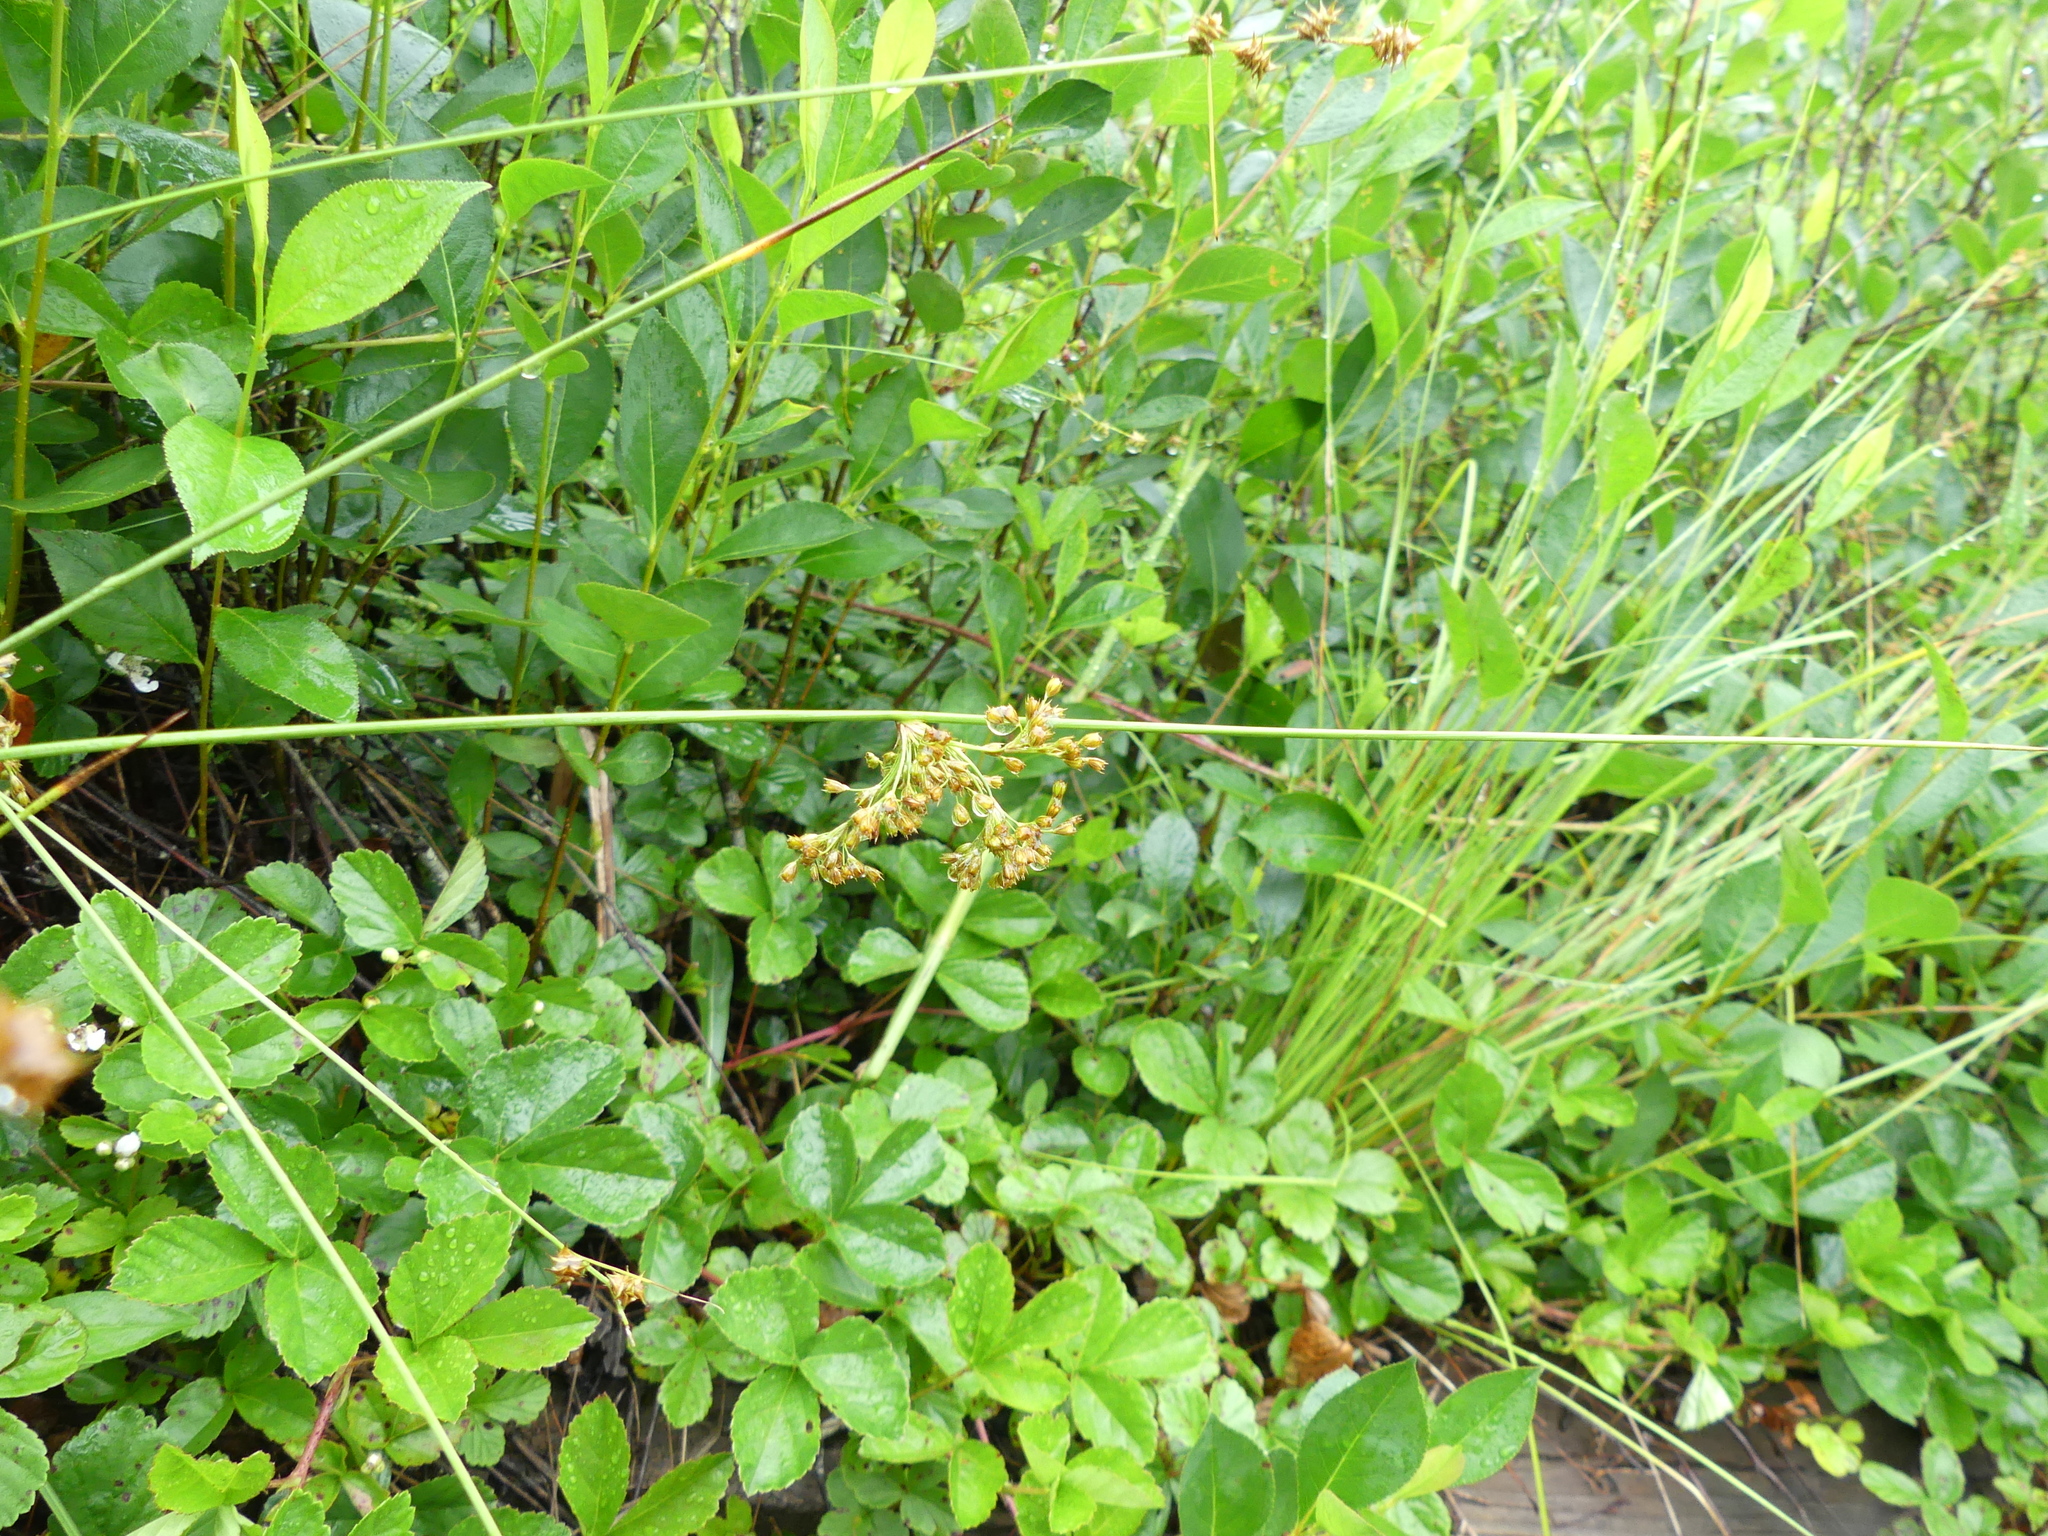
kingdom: Plantae
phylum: Tracheophyta
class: Liliopsida
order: Poales
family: Juncaceae
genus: Juncus
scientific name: Juncus effusus
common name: Soft rush
